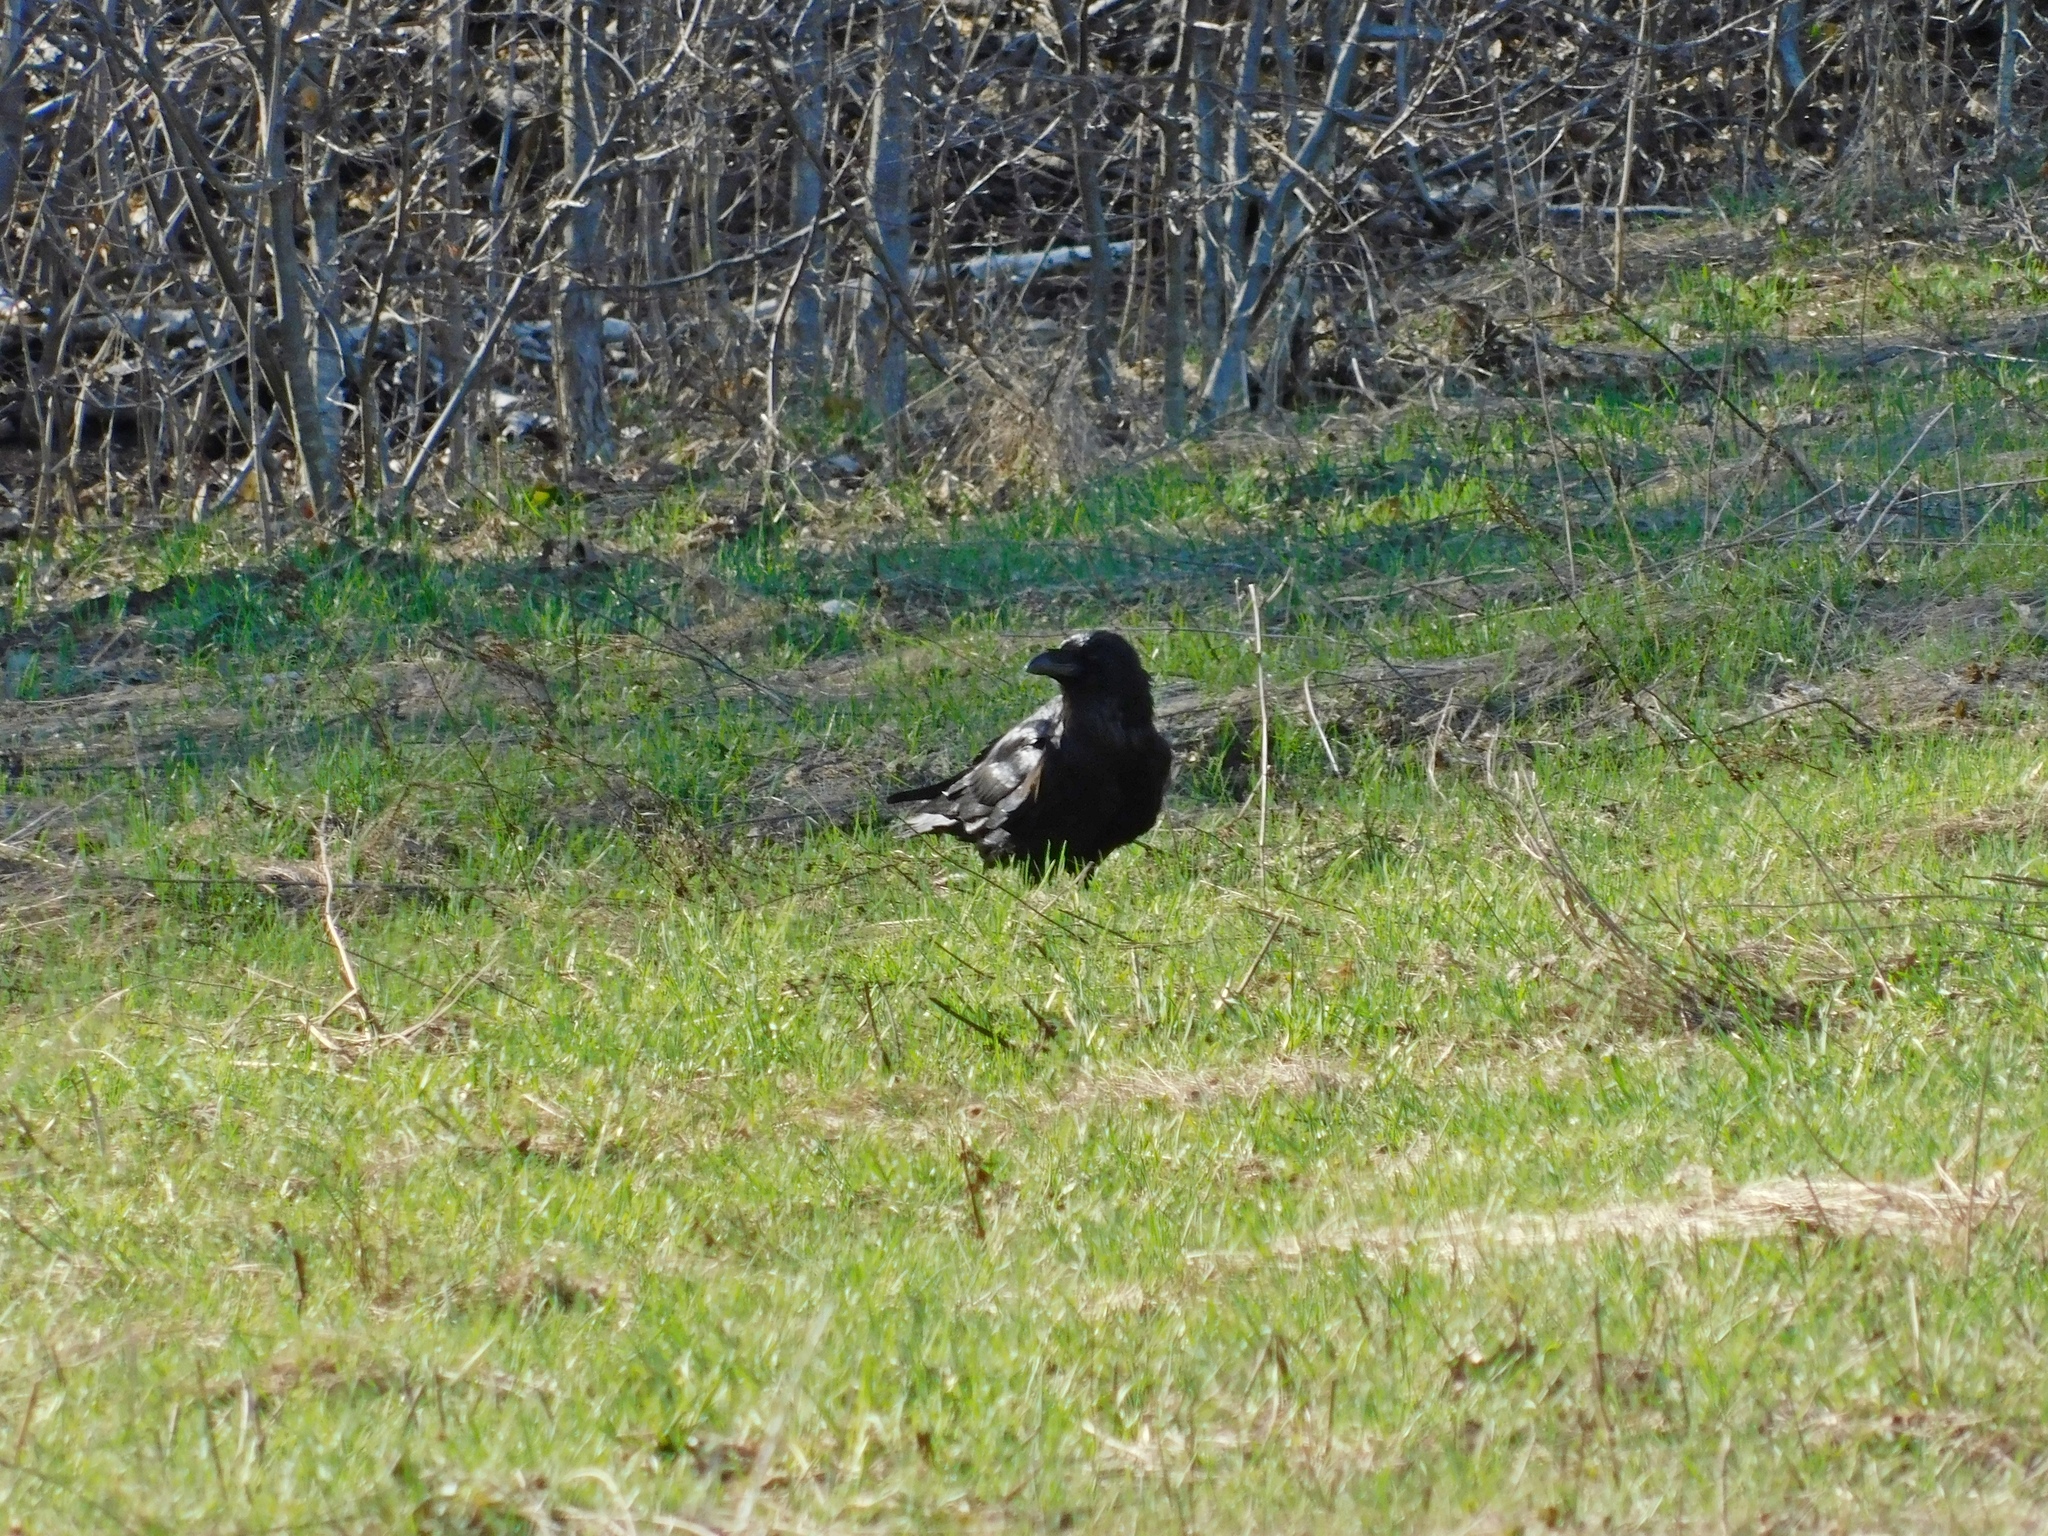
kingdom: Animalia
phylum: Chordata
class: Aves
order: Passeriformes
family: Corvidae
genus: Corvus
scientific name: Corvus corax
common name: Common raven
